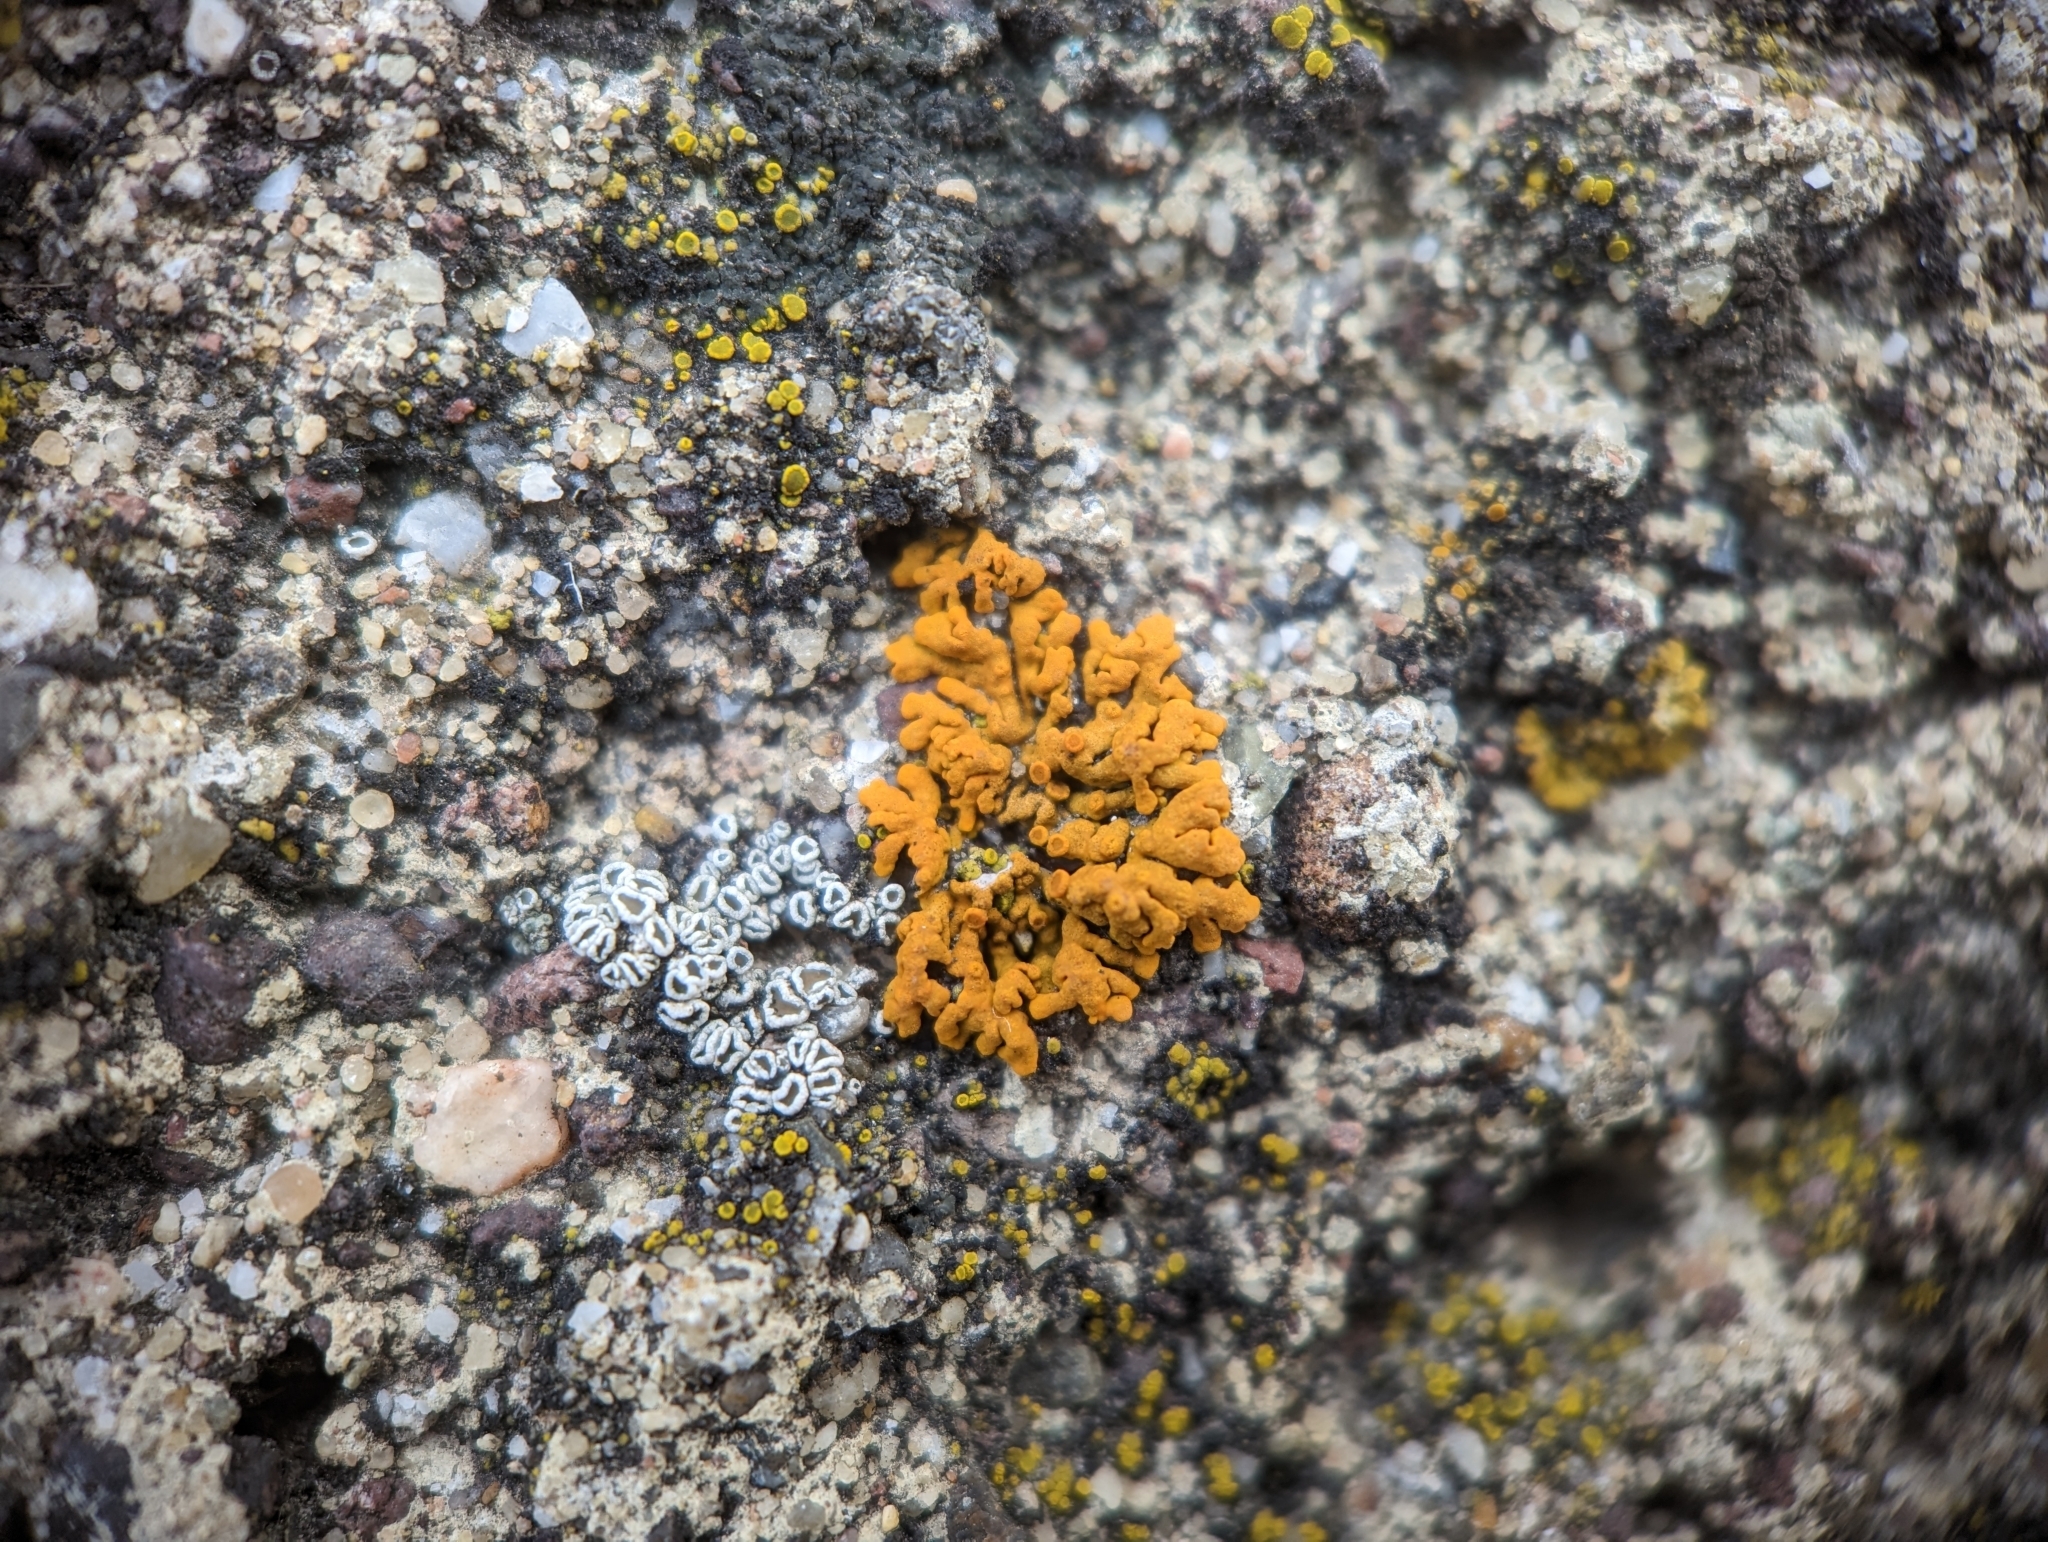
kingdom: Fungi
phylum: Ascomycota
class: Lecanoromycetes
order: Teloschistales
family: Teloschistaceae
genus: Xanthoria
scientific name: Xanthoria elegans
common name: Elegant sunburst lichen
